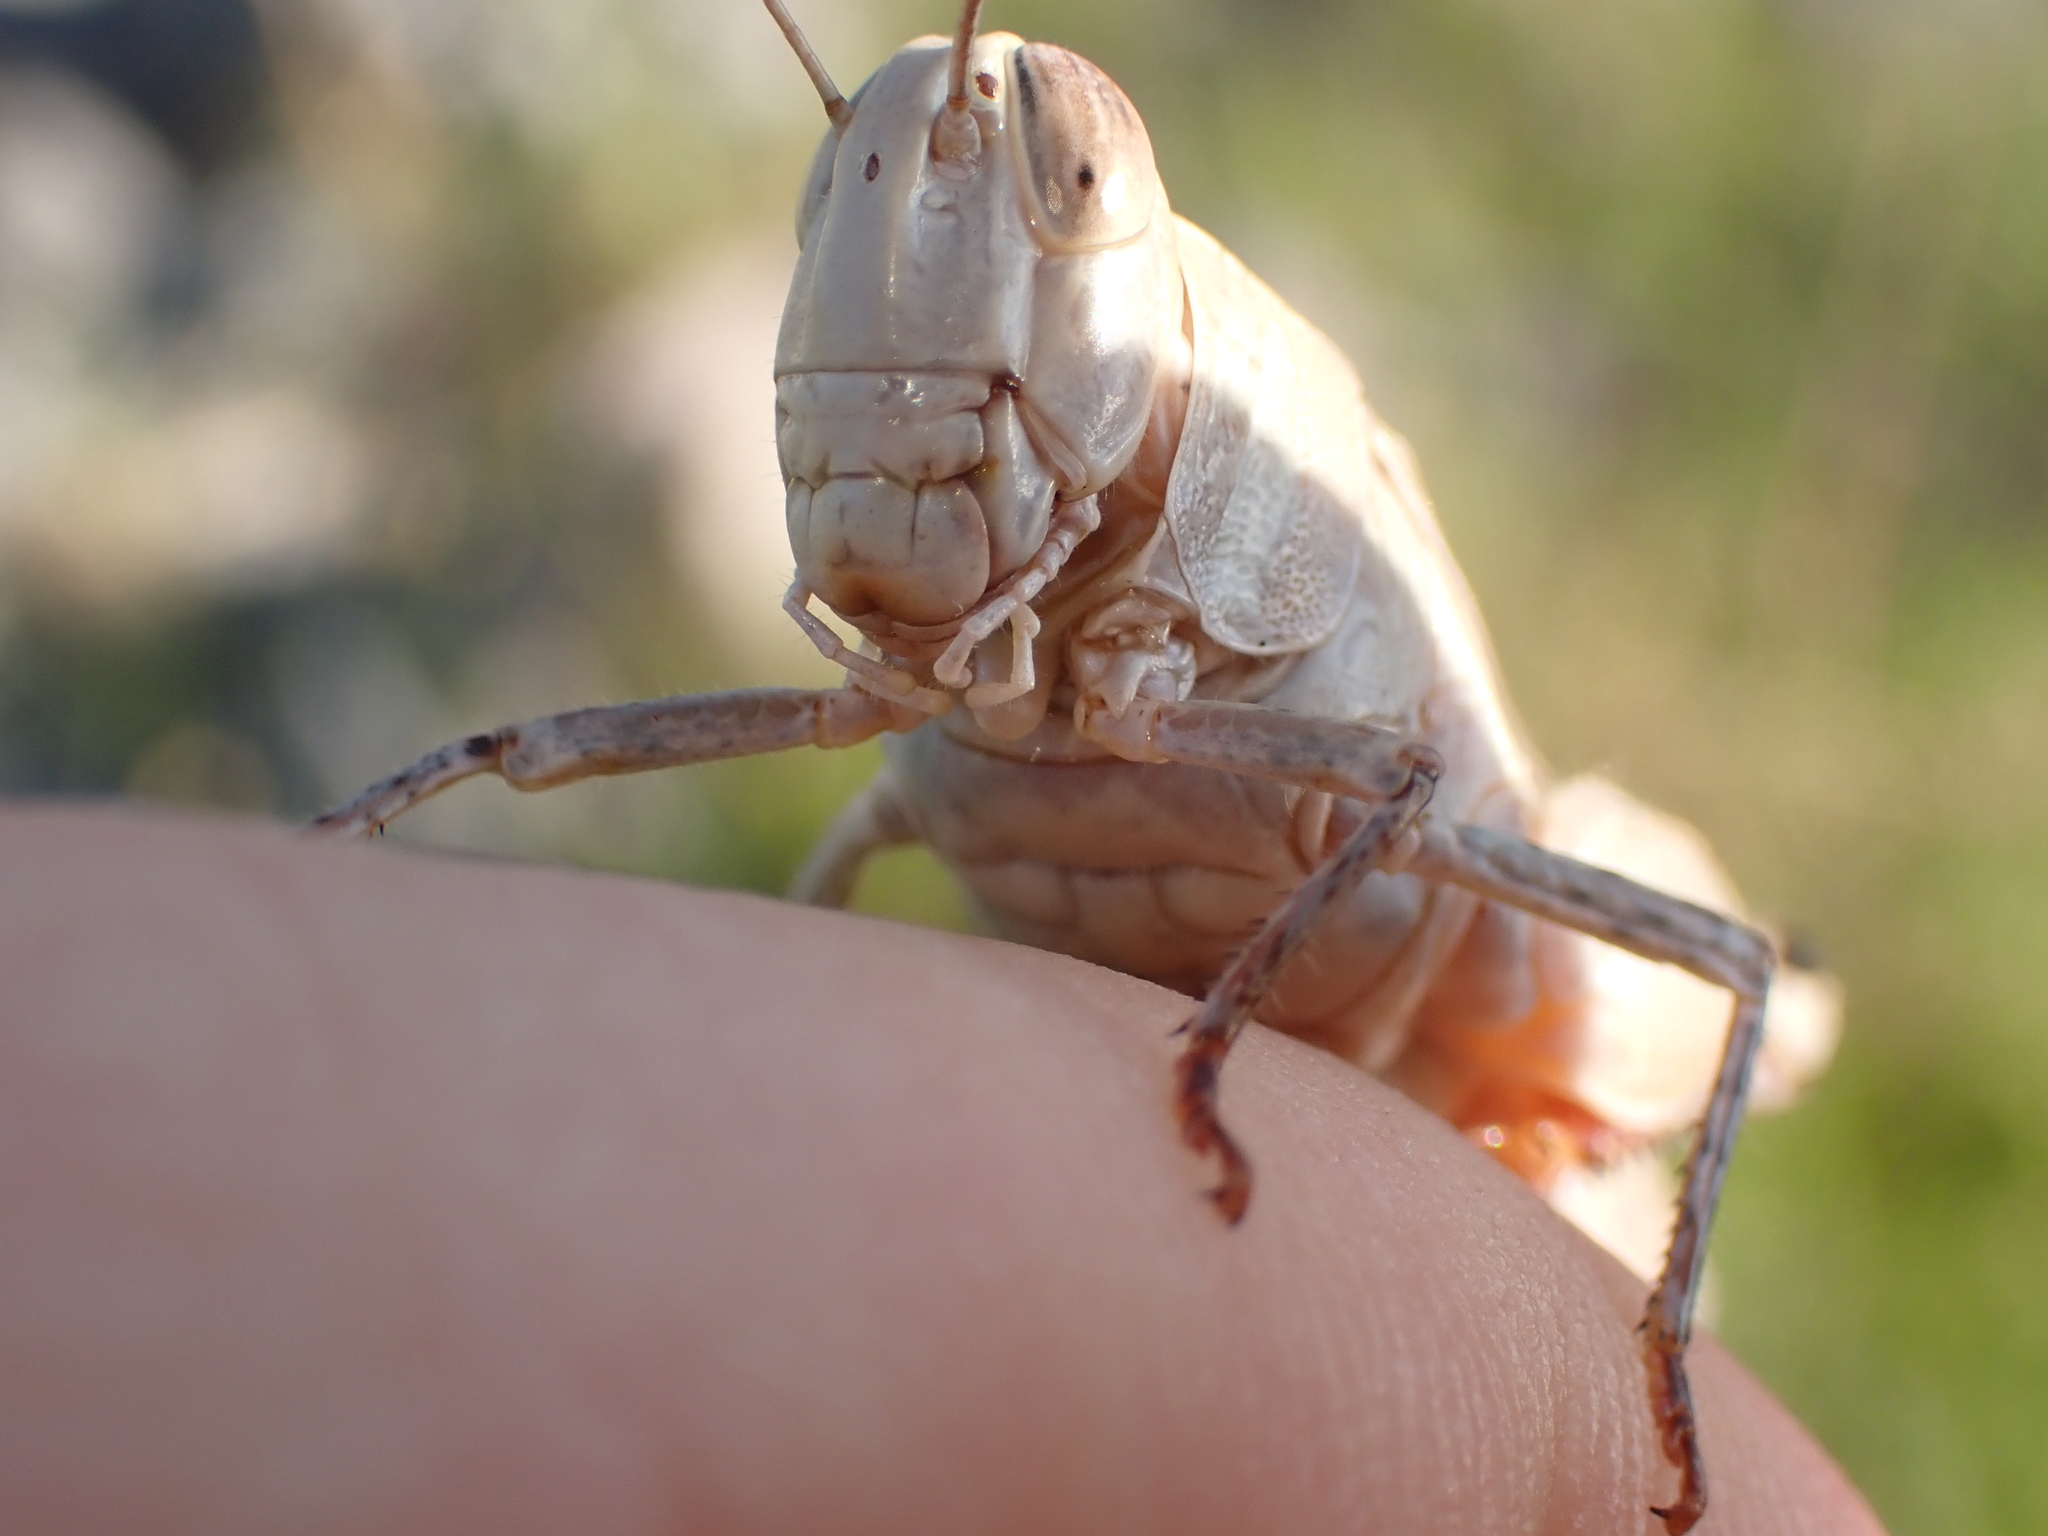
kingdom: Animalia
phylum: Arthropoda
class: Insecta
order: Orthoptera
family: Acrididae
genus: Calliptamus
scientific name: Calliptamus italicus
